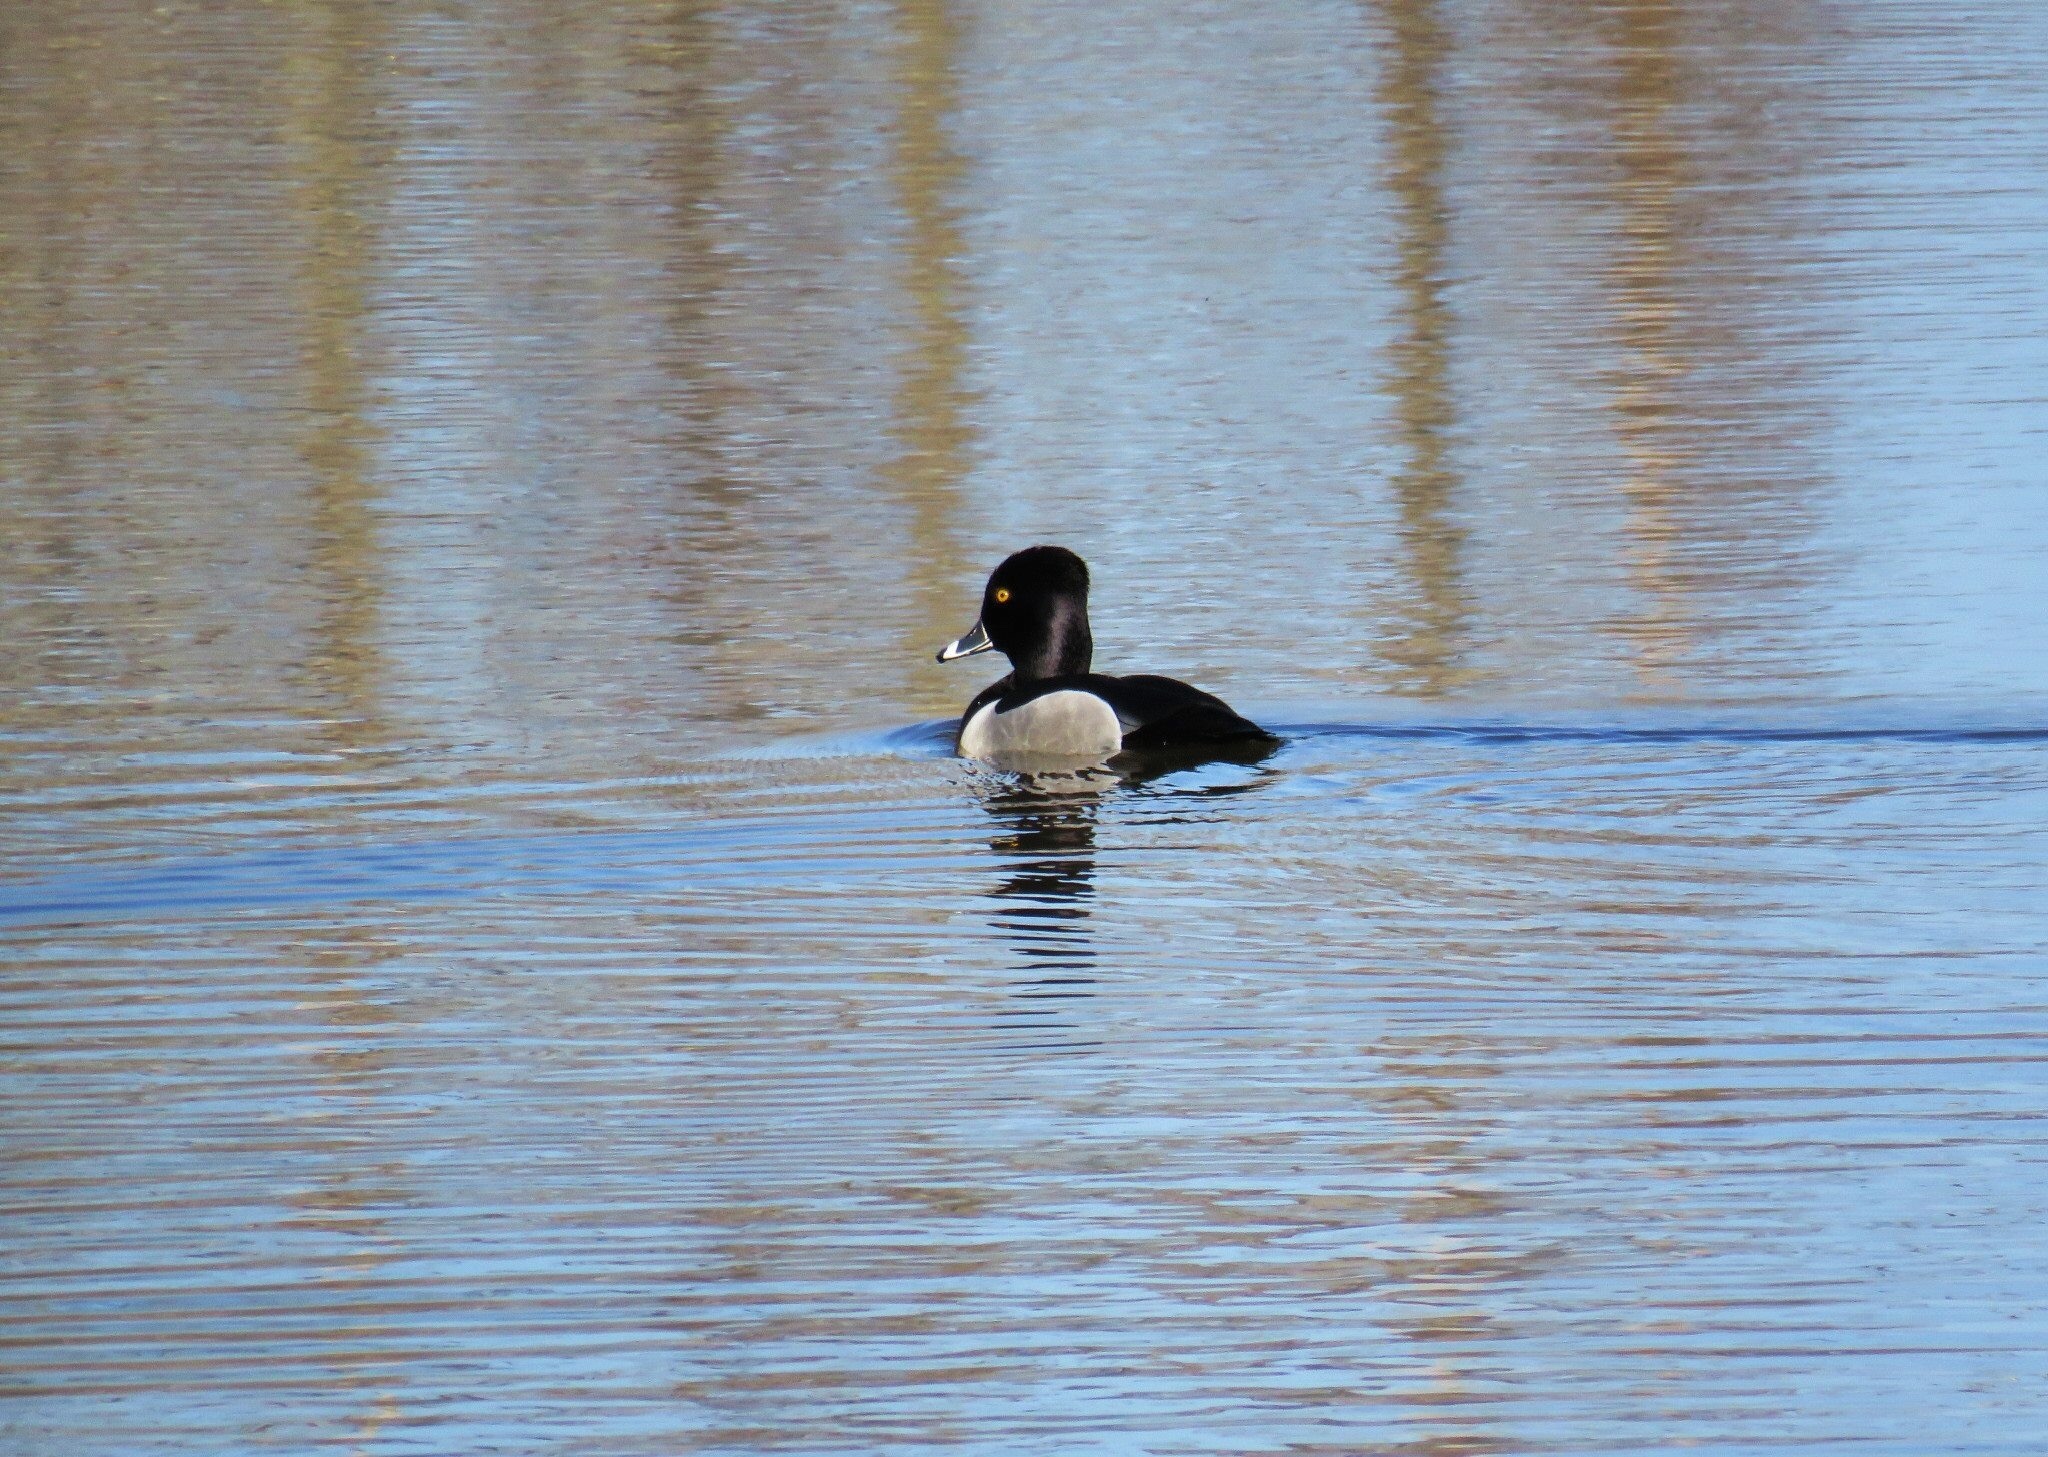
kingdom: Animalia
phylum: Chordata
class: Aves
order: Anseriformes
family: Anatidae
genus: Aythya
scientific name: Aythya collaris
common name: Ring-necked duck
